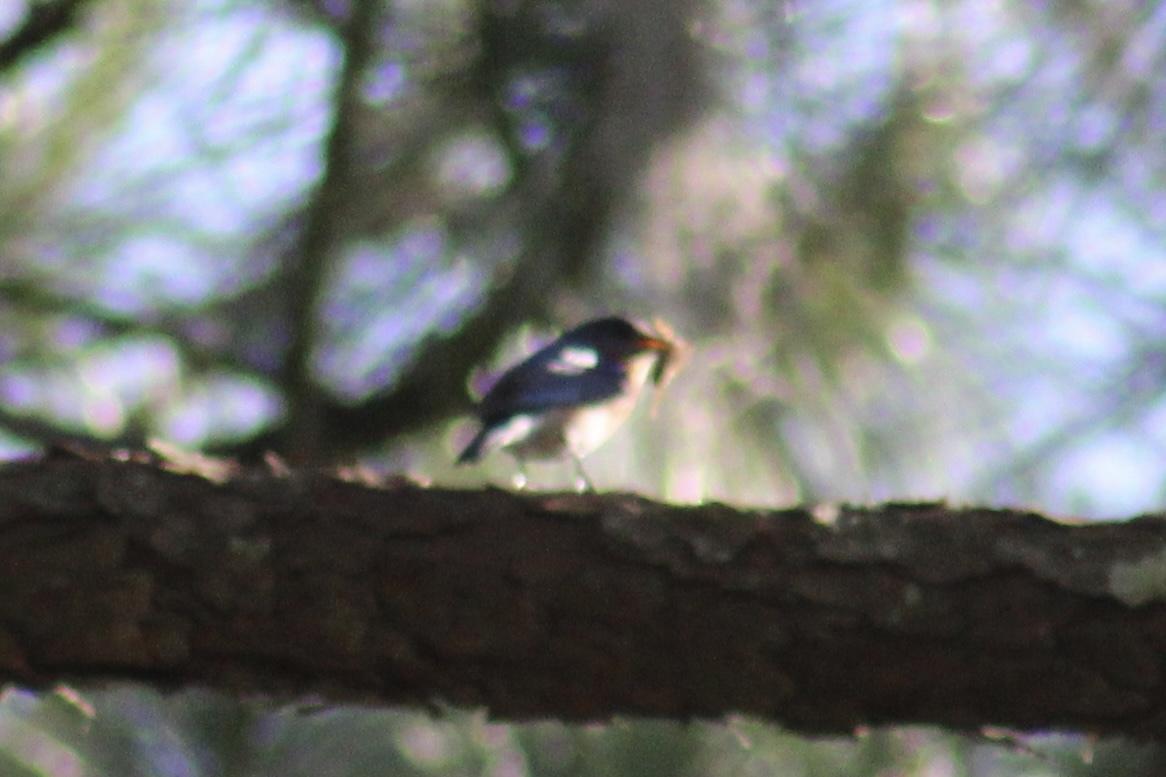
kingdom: Animalia
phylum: Chordata
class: Aves
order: Passeriformes
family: Turdidae
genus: Sialia
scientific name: Sialia sialis
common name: Eastern bluebird
